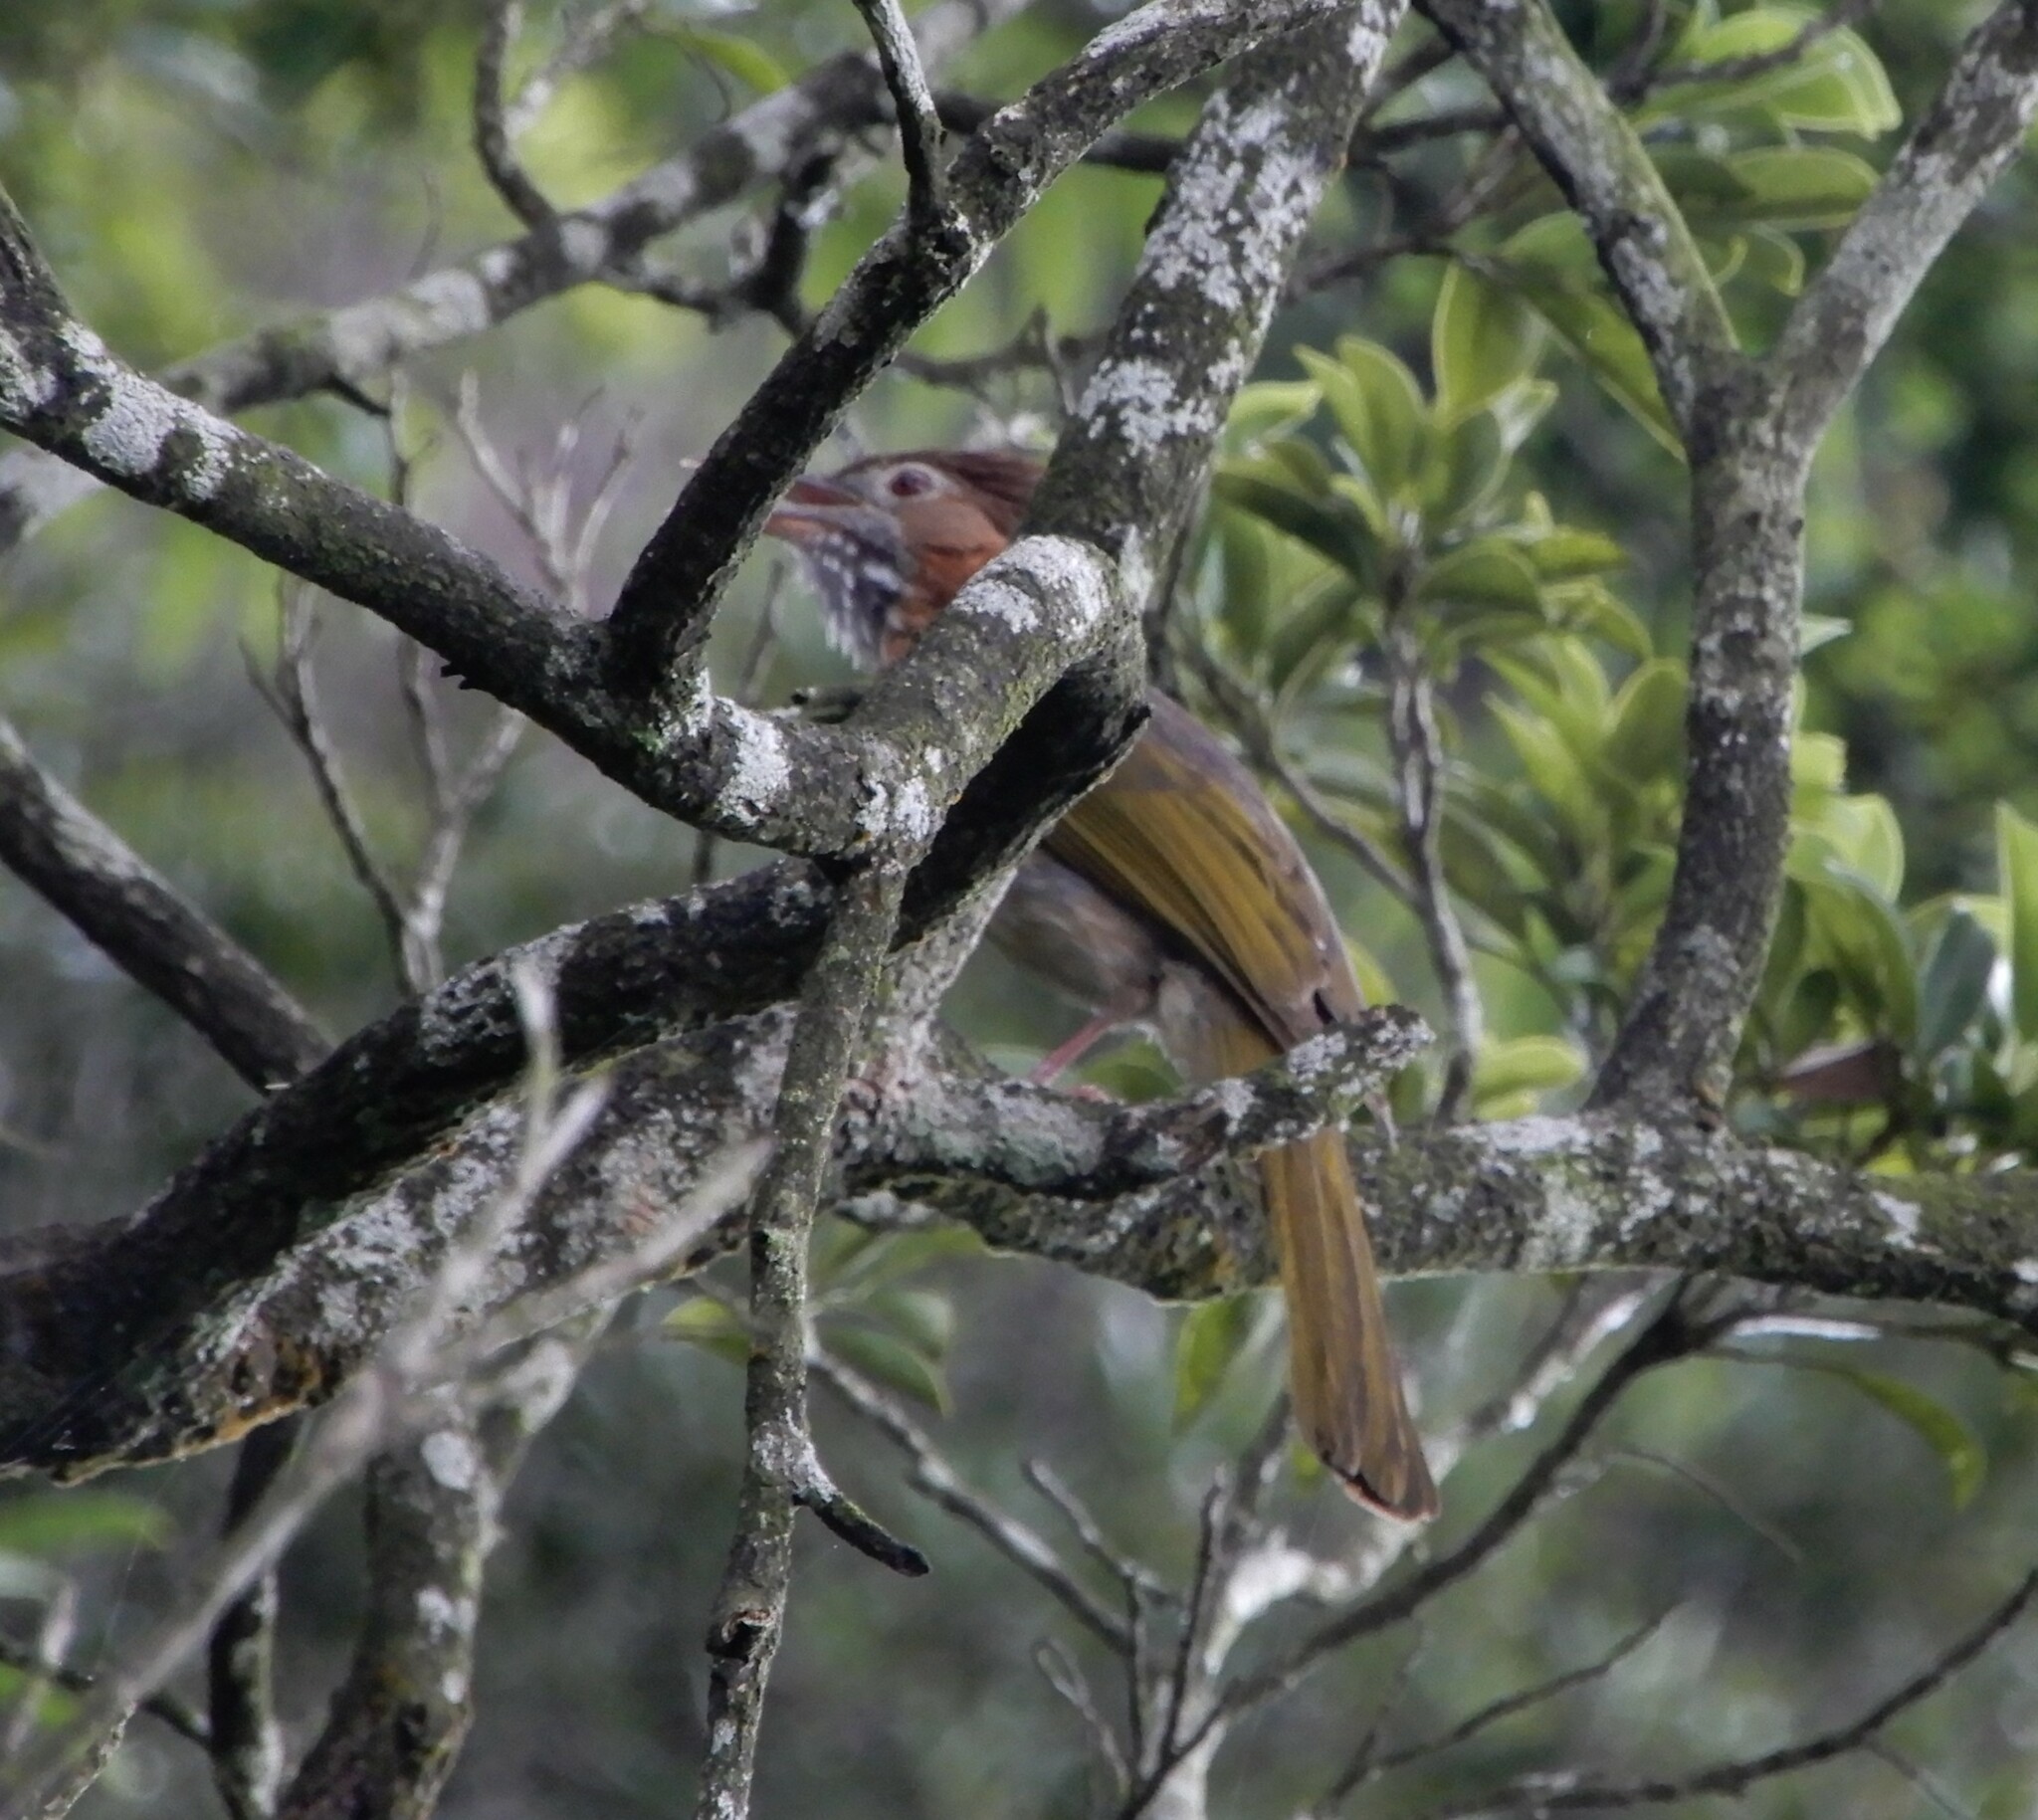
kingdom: Animalia
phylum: Chordata
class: Aves
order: Passeriformes
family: Pycnonotidae
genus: Ixos
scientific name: Ixos mcclellandii
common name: Mountain bulbul
